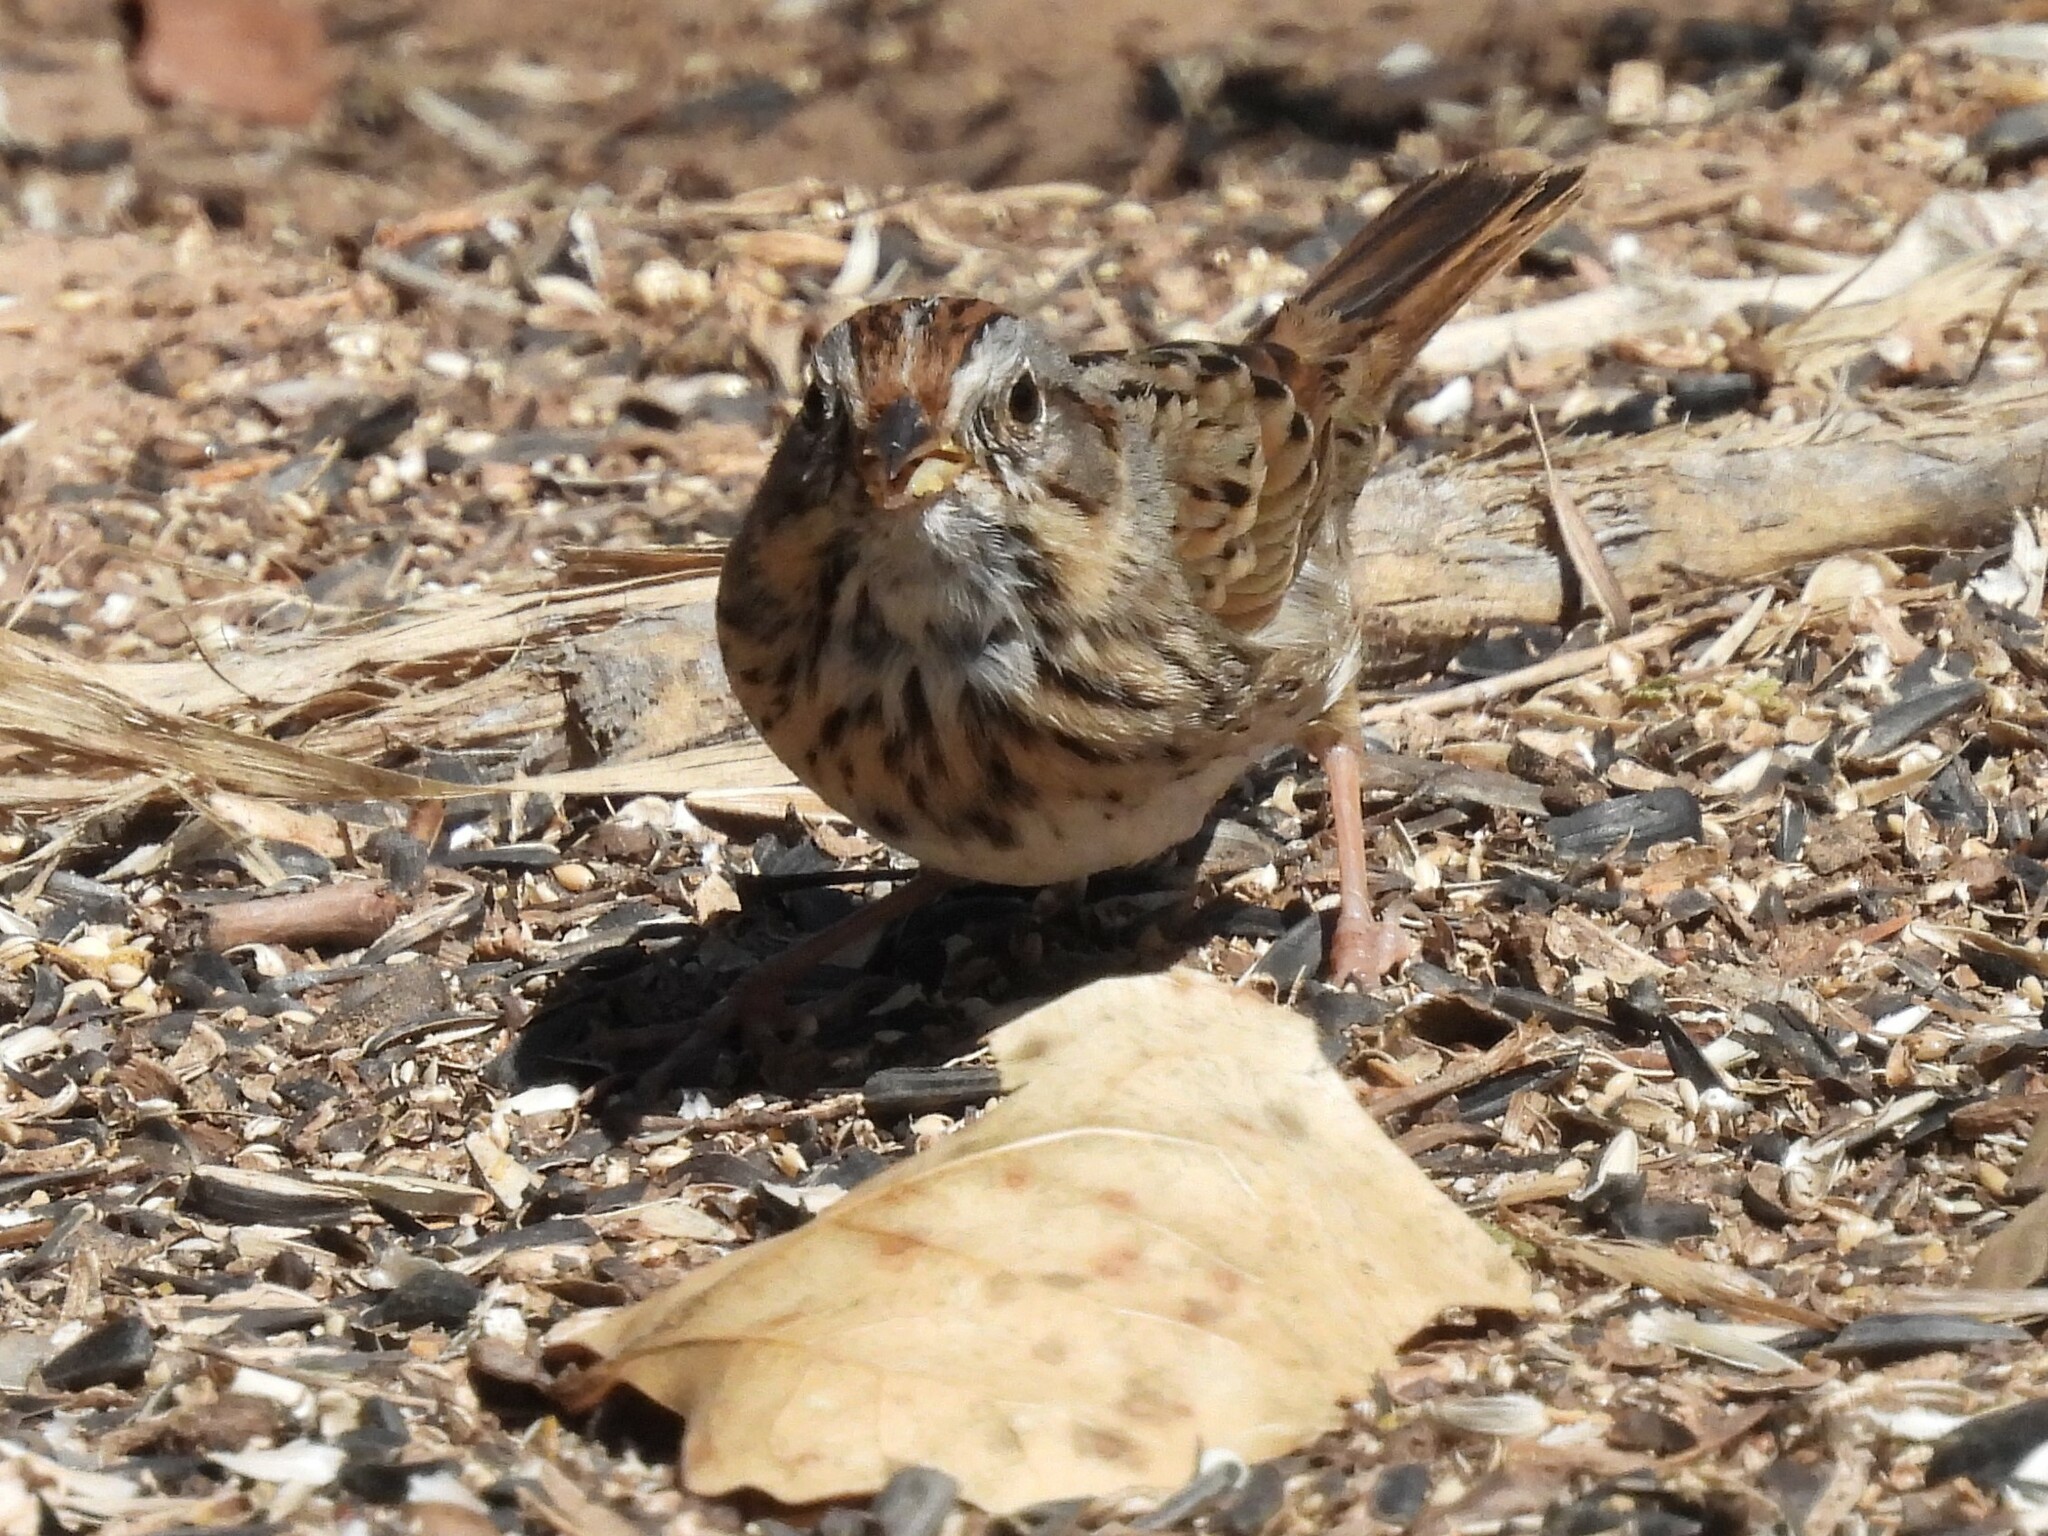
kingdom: Animalia
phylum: Chordata
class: Aves
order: Passeriformes
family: Passerellidae
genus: Melospiza
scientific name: Melospiza lincolnii
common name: Lincoln's sparrow
